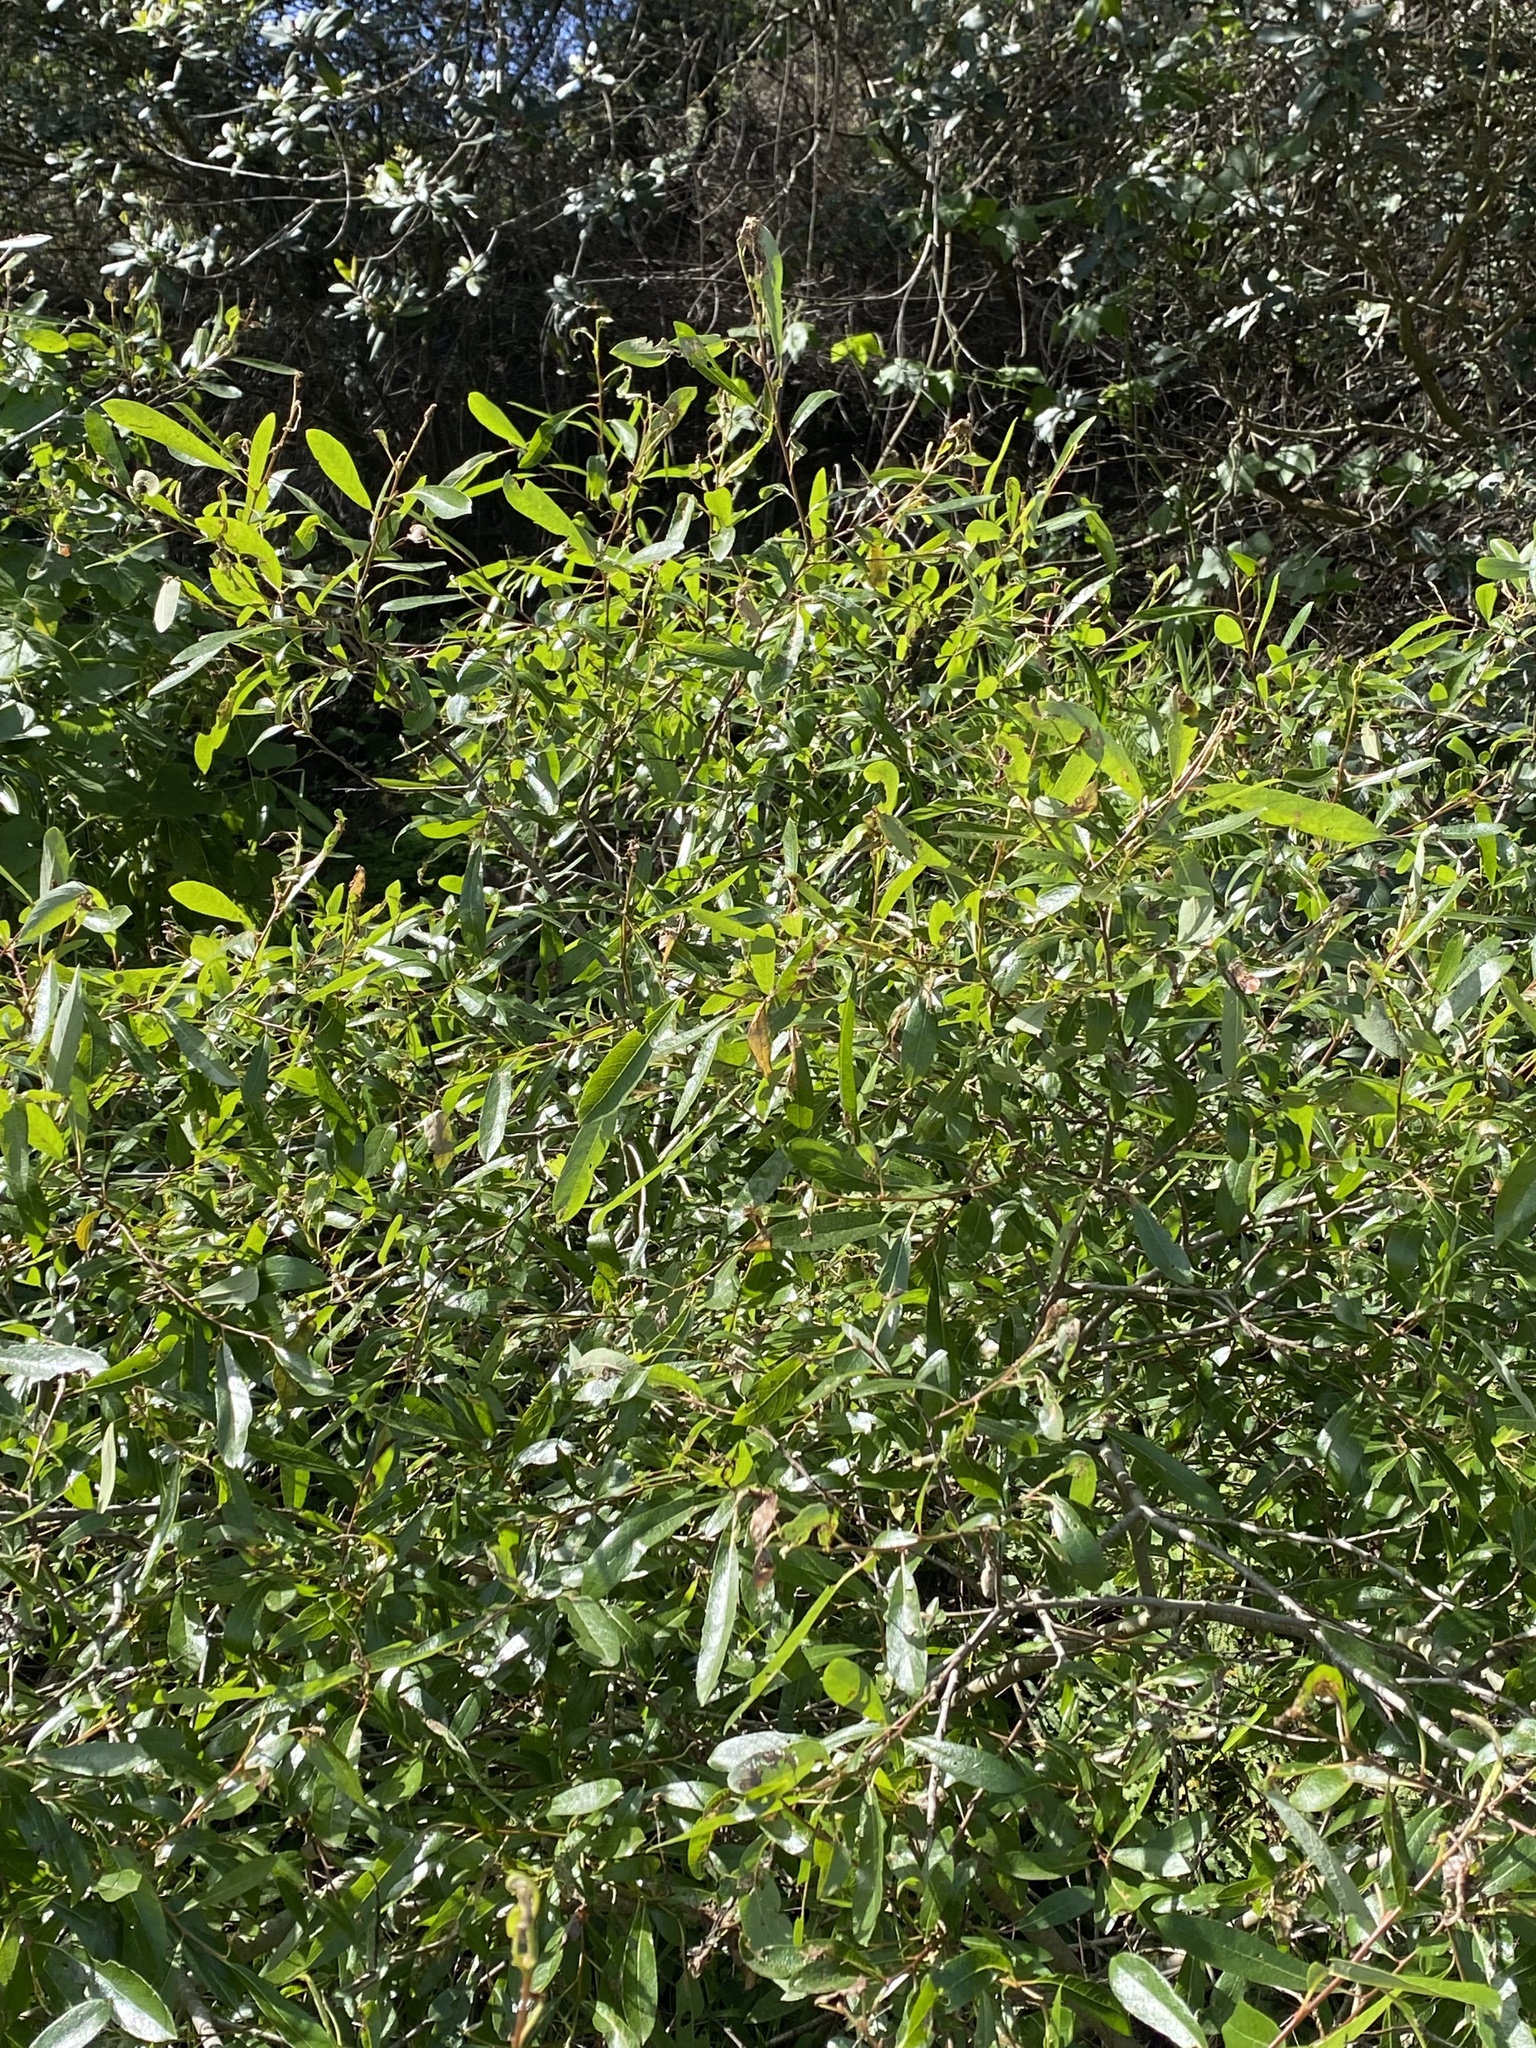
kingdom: Plantae
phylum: Tracheophyta
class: Magnoliopsida
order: Malpighiales
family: Salicaceae
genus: Salix
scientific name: Salix lasiolepis
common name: Arroyo willow
